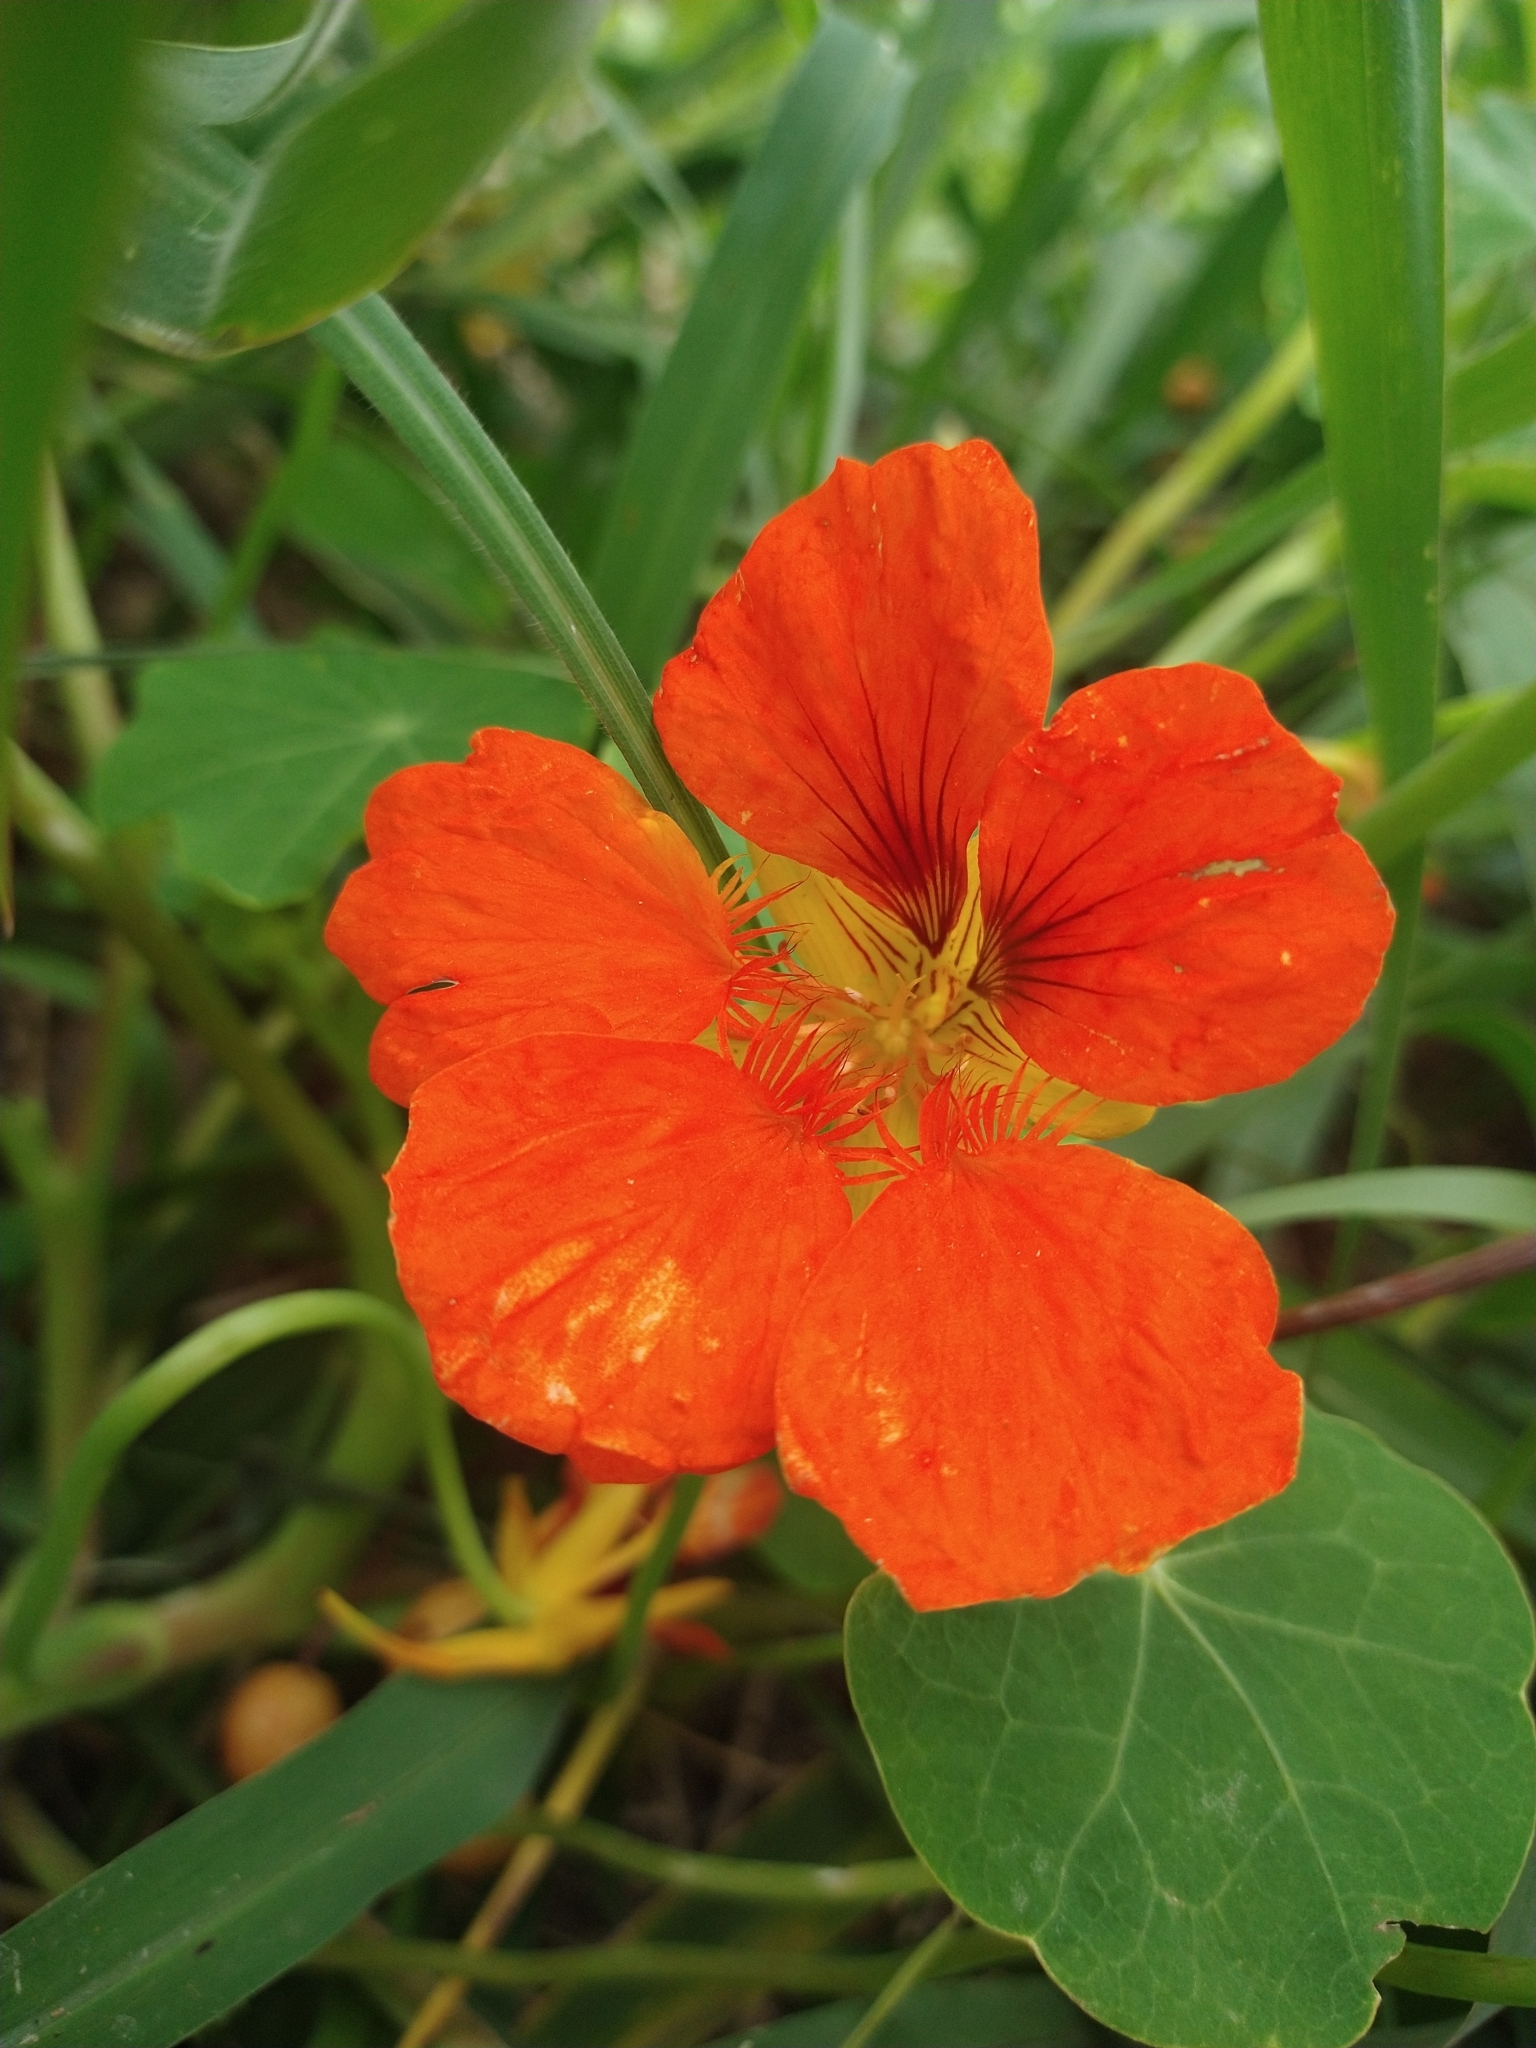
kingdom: Plantae
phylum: Tracheophyta
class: Magnoliopsida
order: Brassicales
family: Tropaeolaceae
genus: Tropaeolum
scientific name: Tropaeolum majus
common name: Nasturtium
